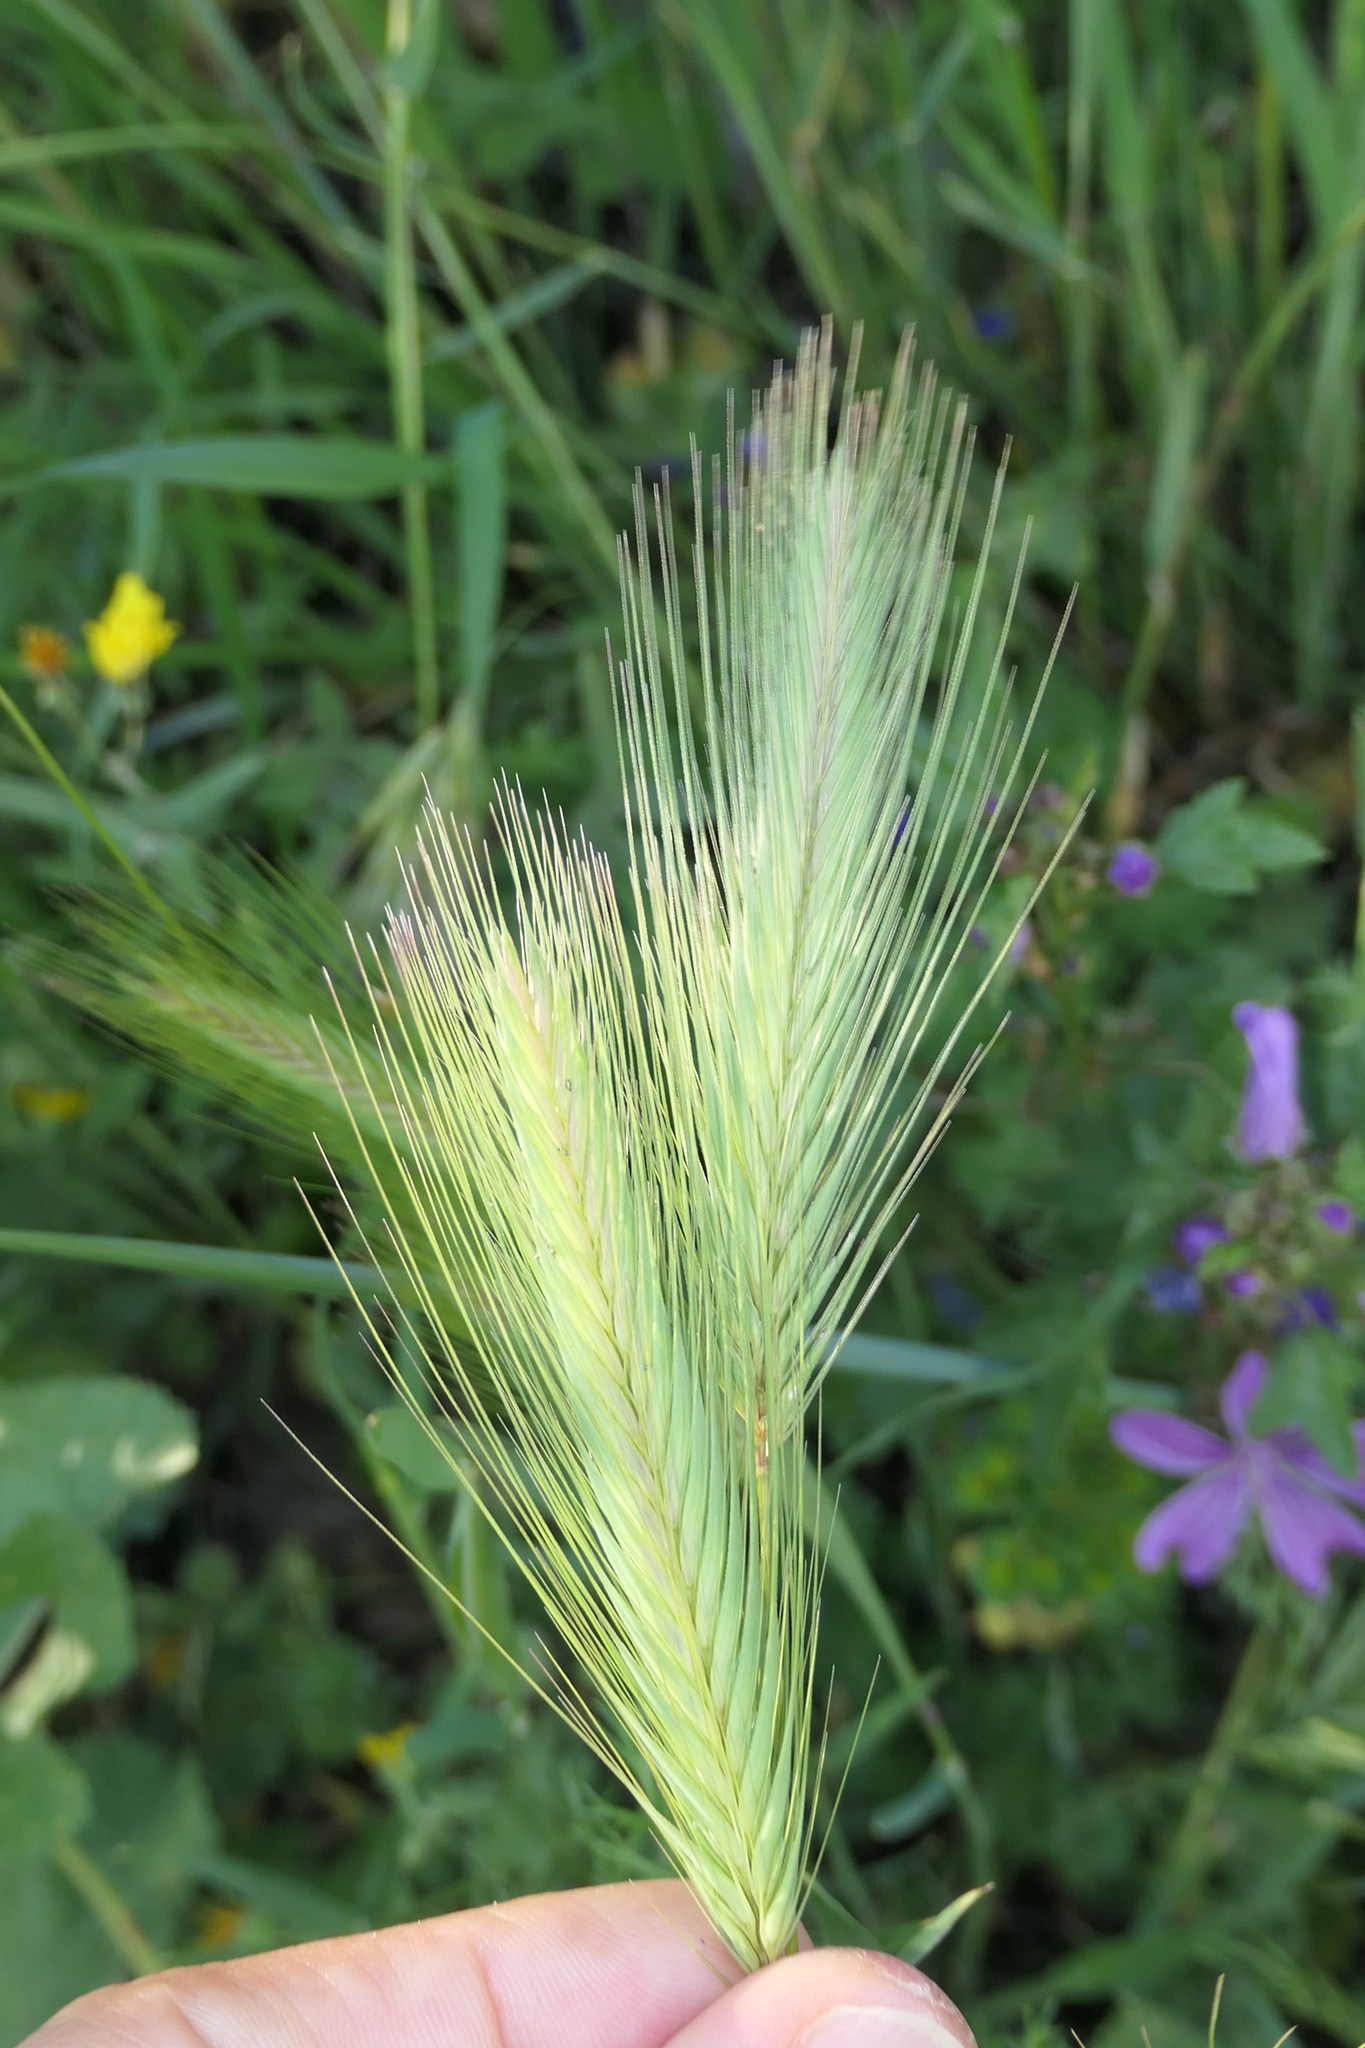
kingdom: Plantae
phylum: Tracheophyta
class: Liliopsida
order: Poales
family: Poaceae
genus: Hordeum
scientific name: Hordeum murinum
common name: Wall barley
